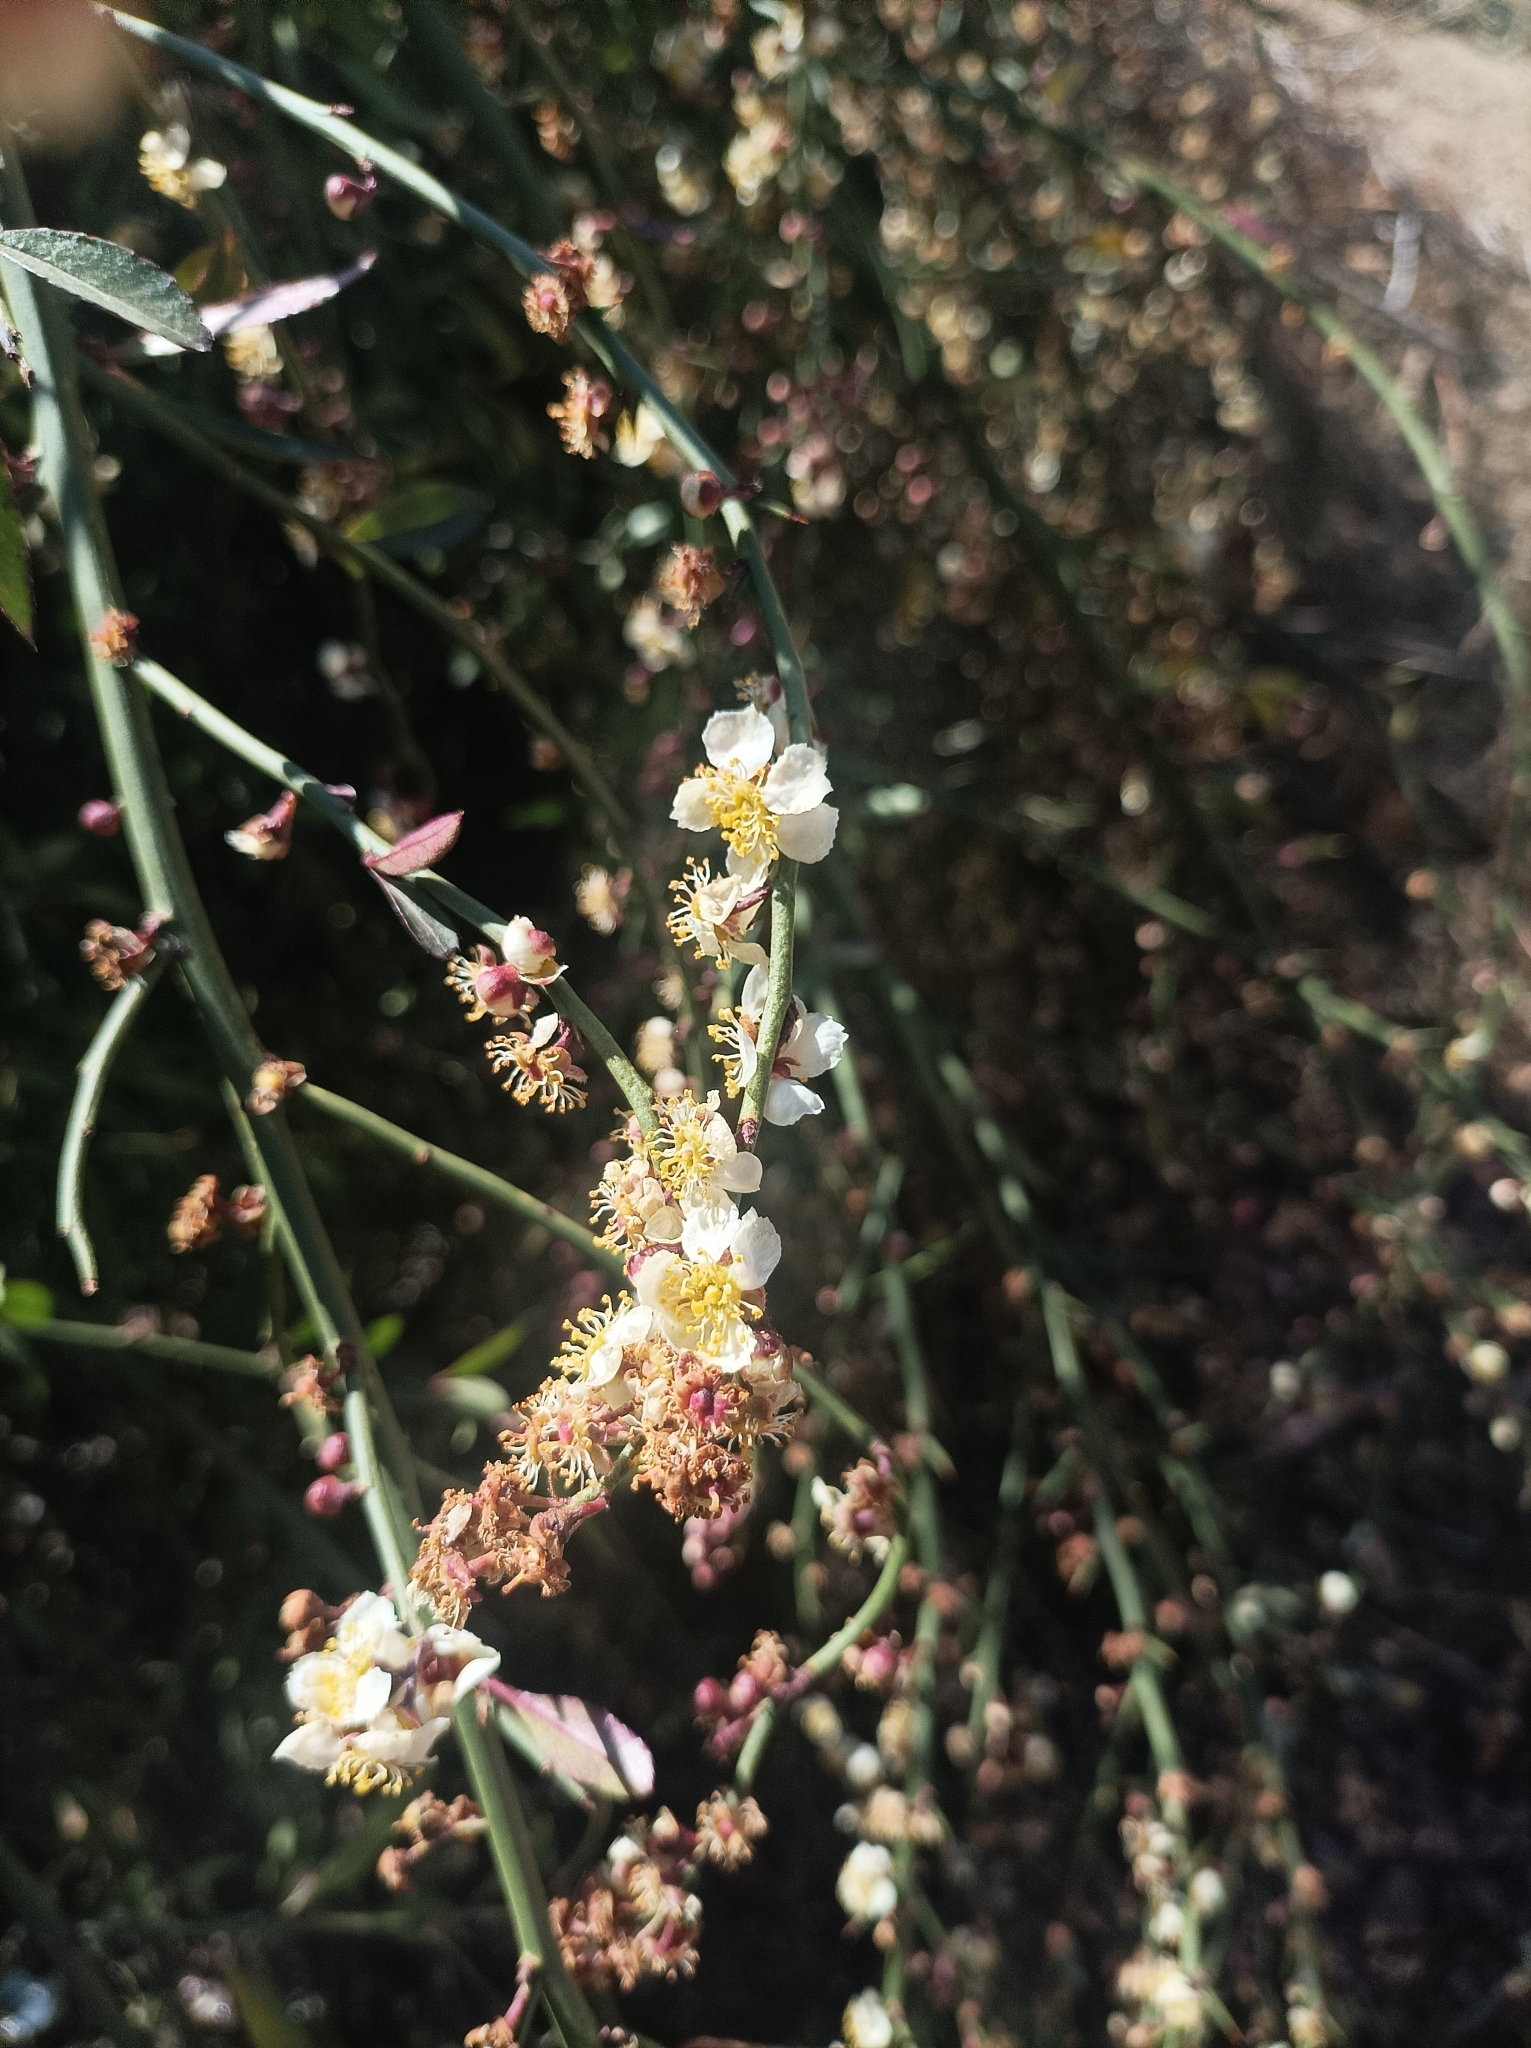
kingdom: Plantae
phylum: Tracheophyta
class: Magnoliopsida
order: Rosales
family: Rosaceae
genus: Prinsepia
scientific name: Prinsepia utilis
